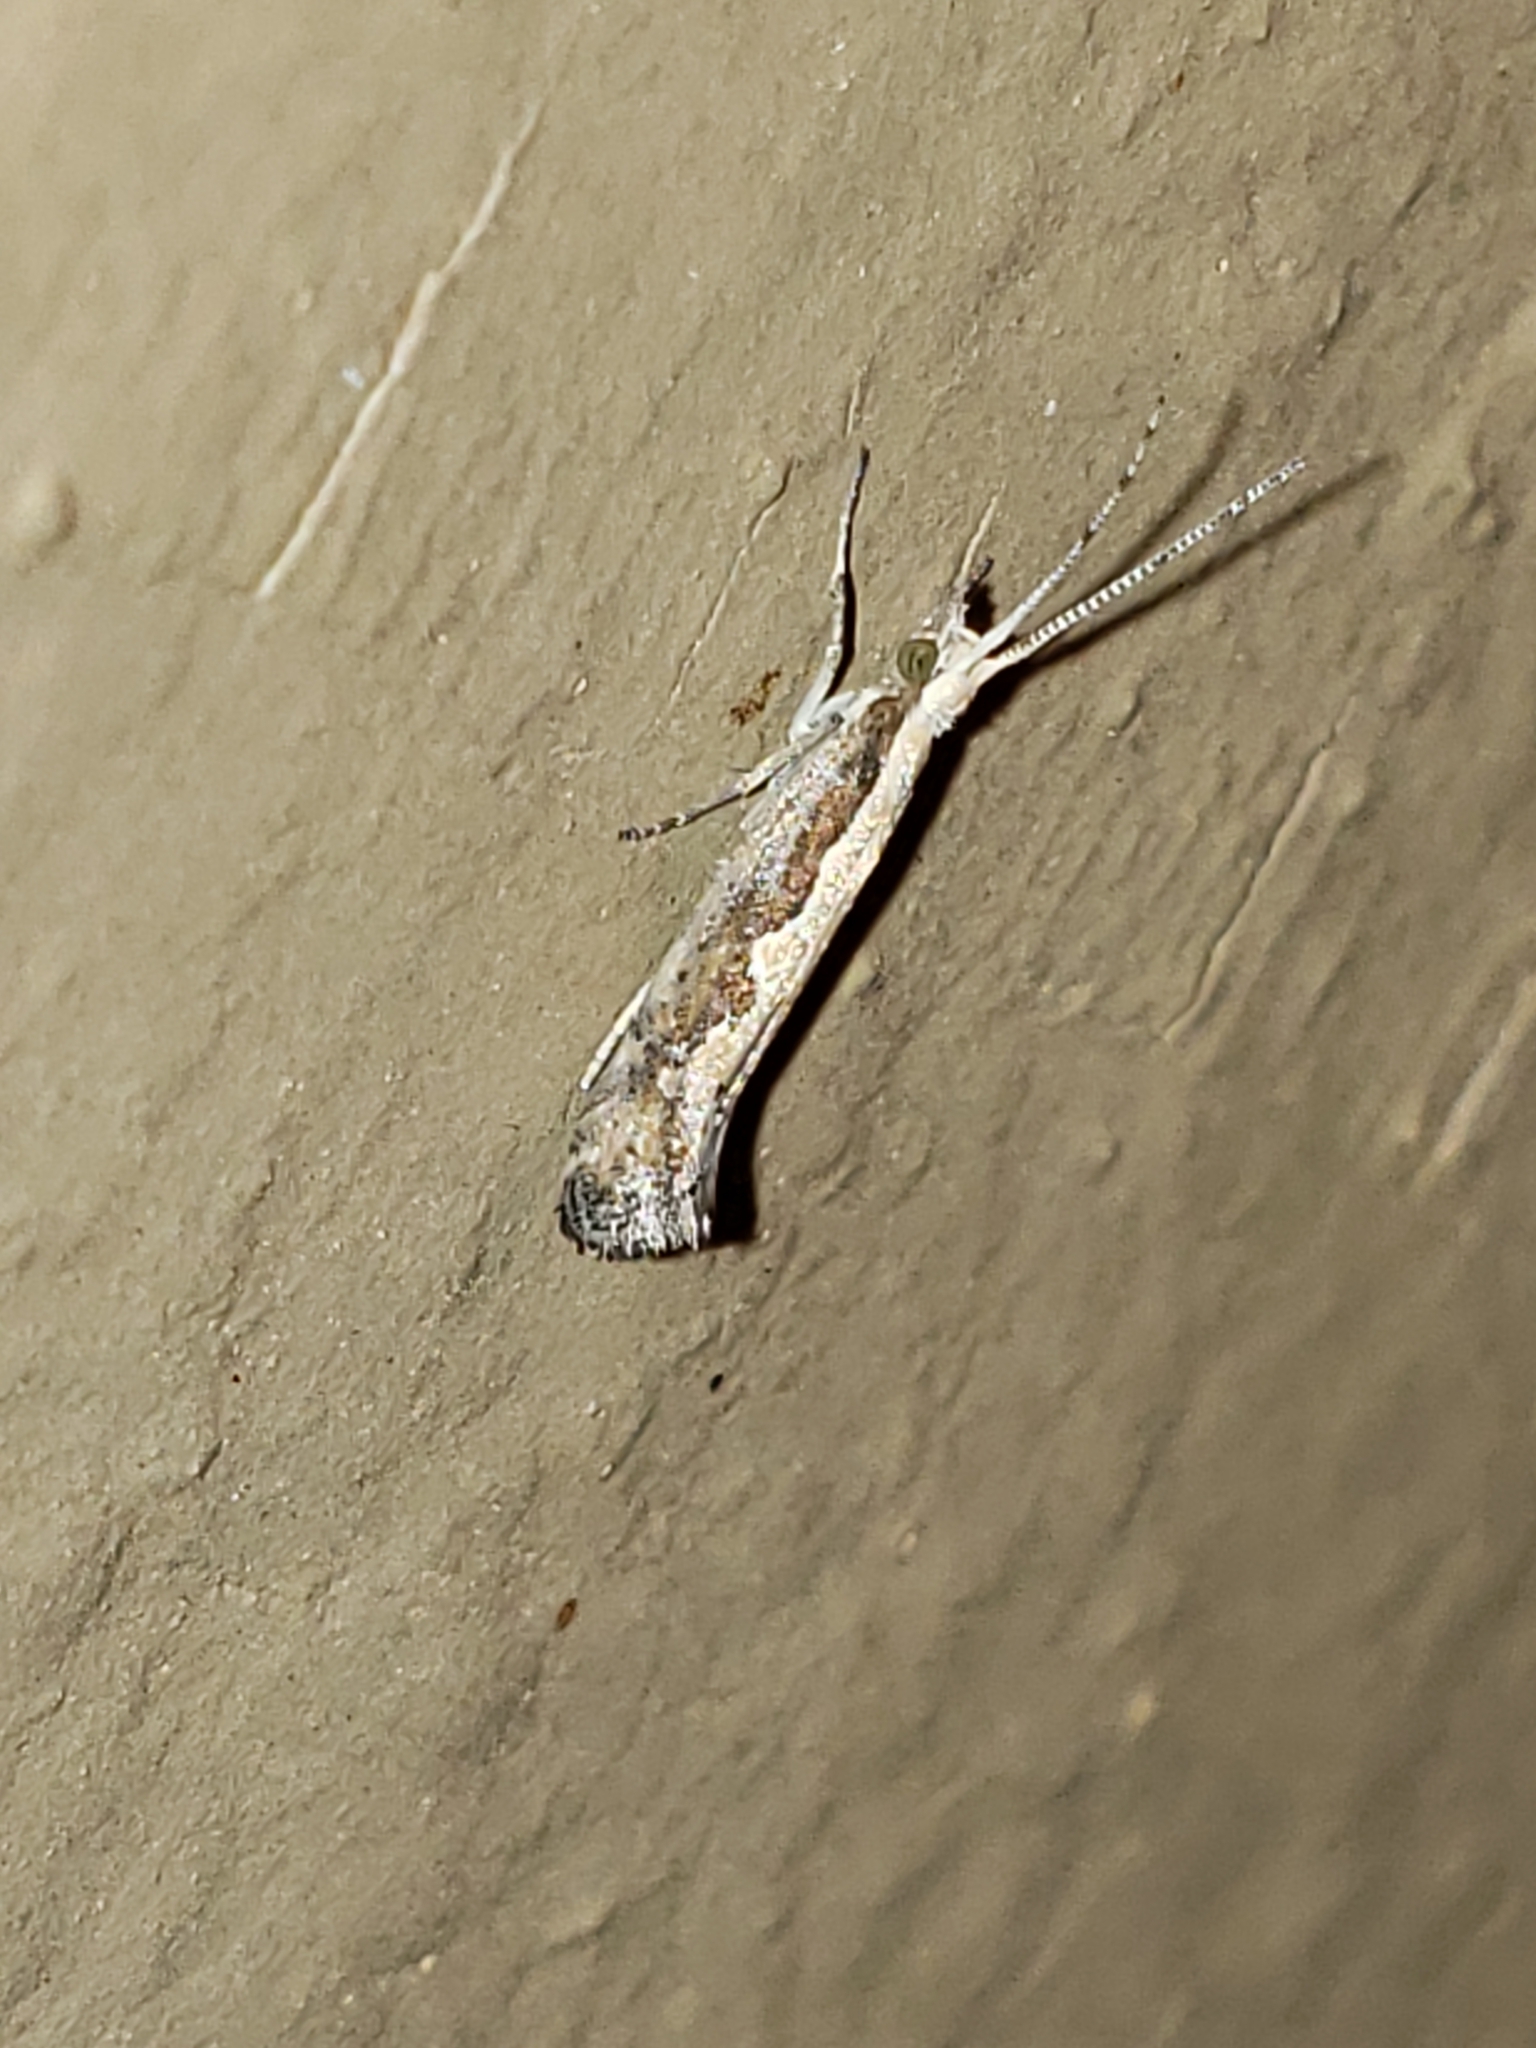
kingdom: Animalia
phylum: Arthropoda
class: Insecta
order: Lepidoptera
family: Plutellidae
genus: Plutella
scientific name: Plutella xylostella
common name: Diamond-back moth
